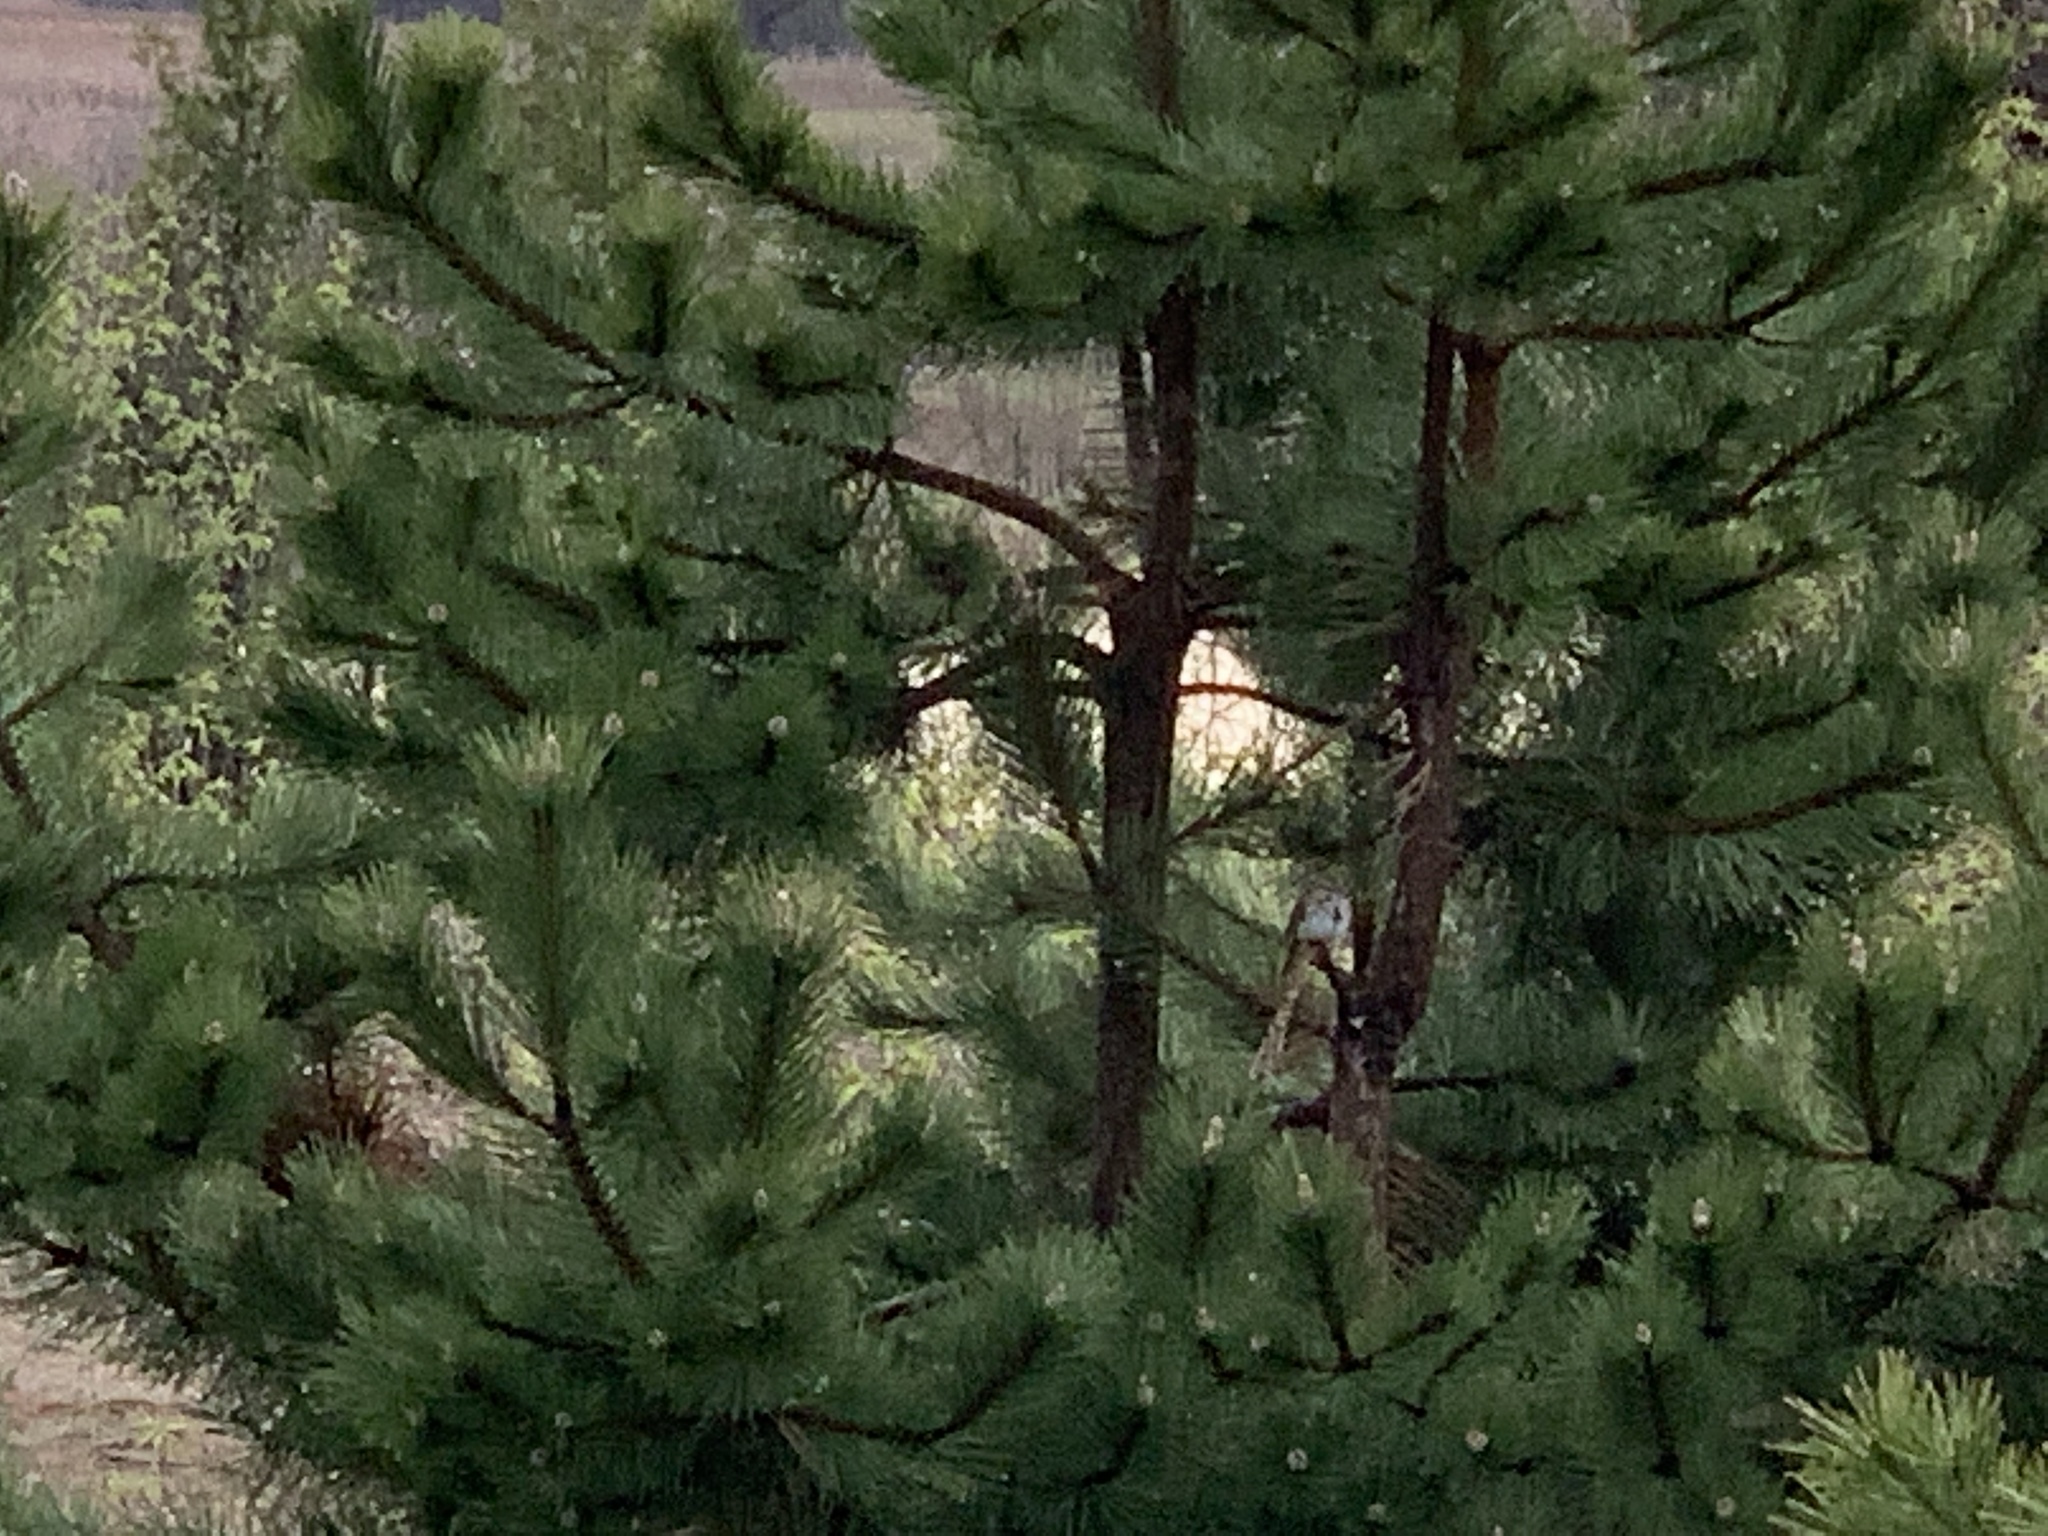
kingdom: Animalia
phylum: Chordata
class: Aves
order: Passeriformes
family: Passerellidae
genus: Melospiza
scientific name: Melospiza melodia
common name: Song sparrow
